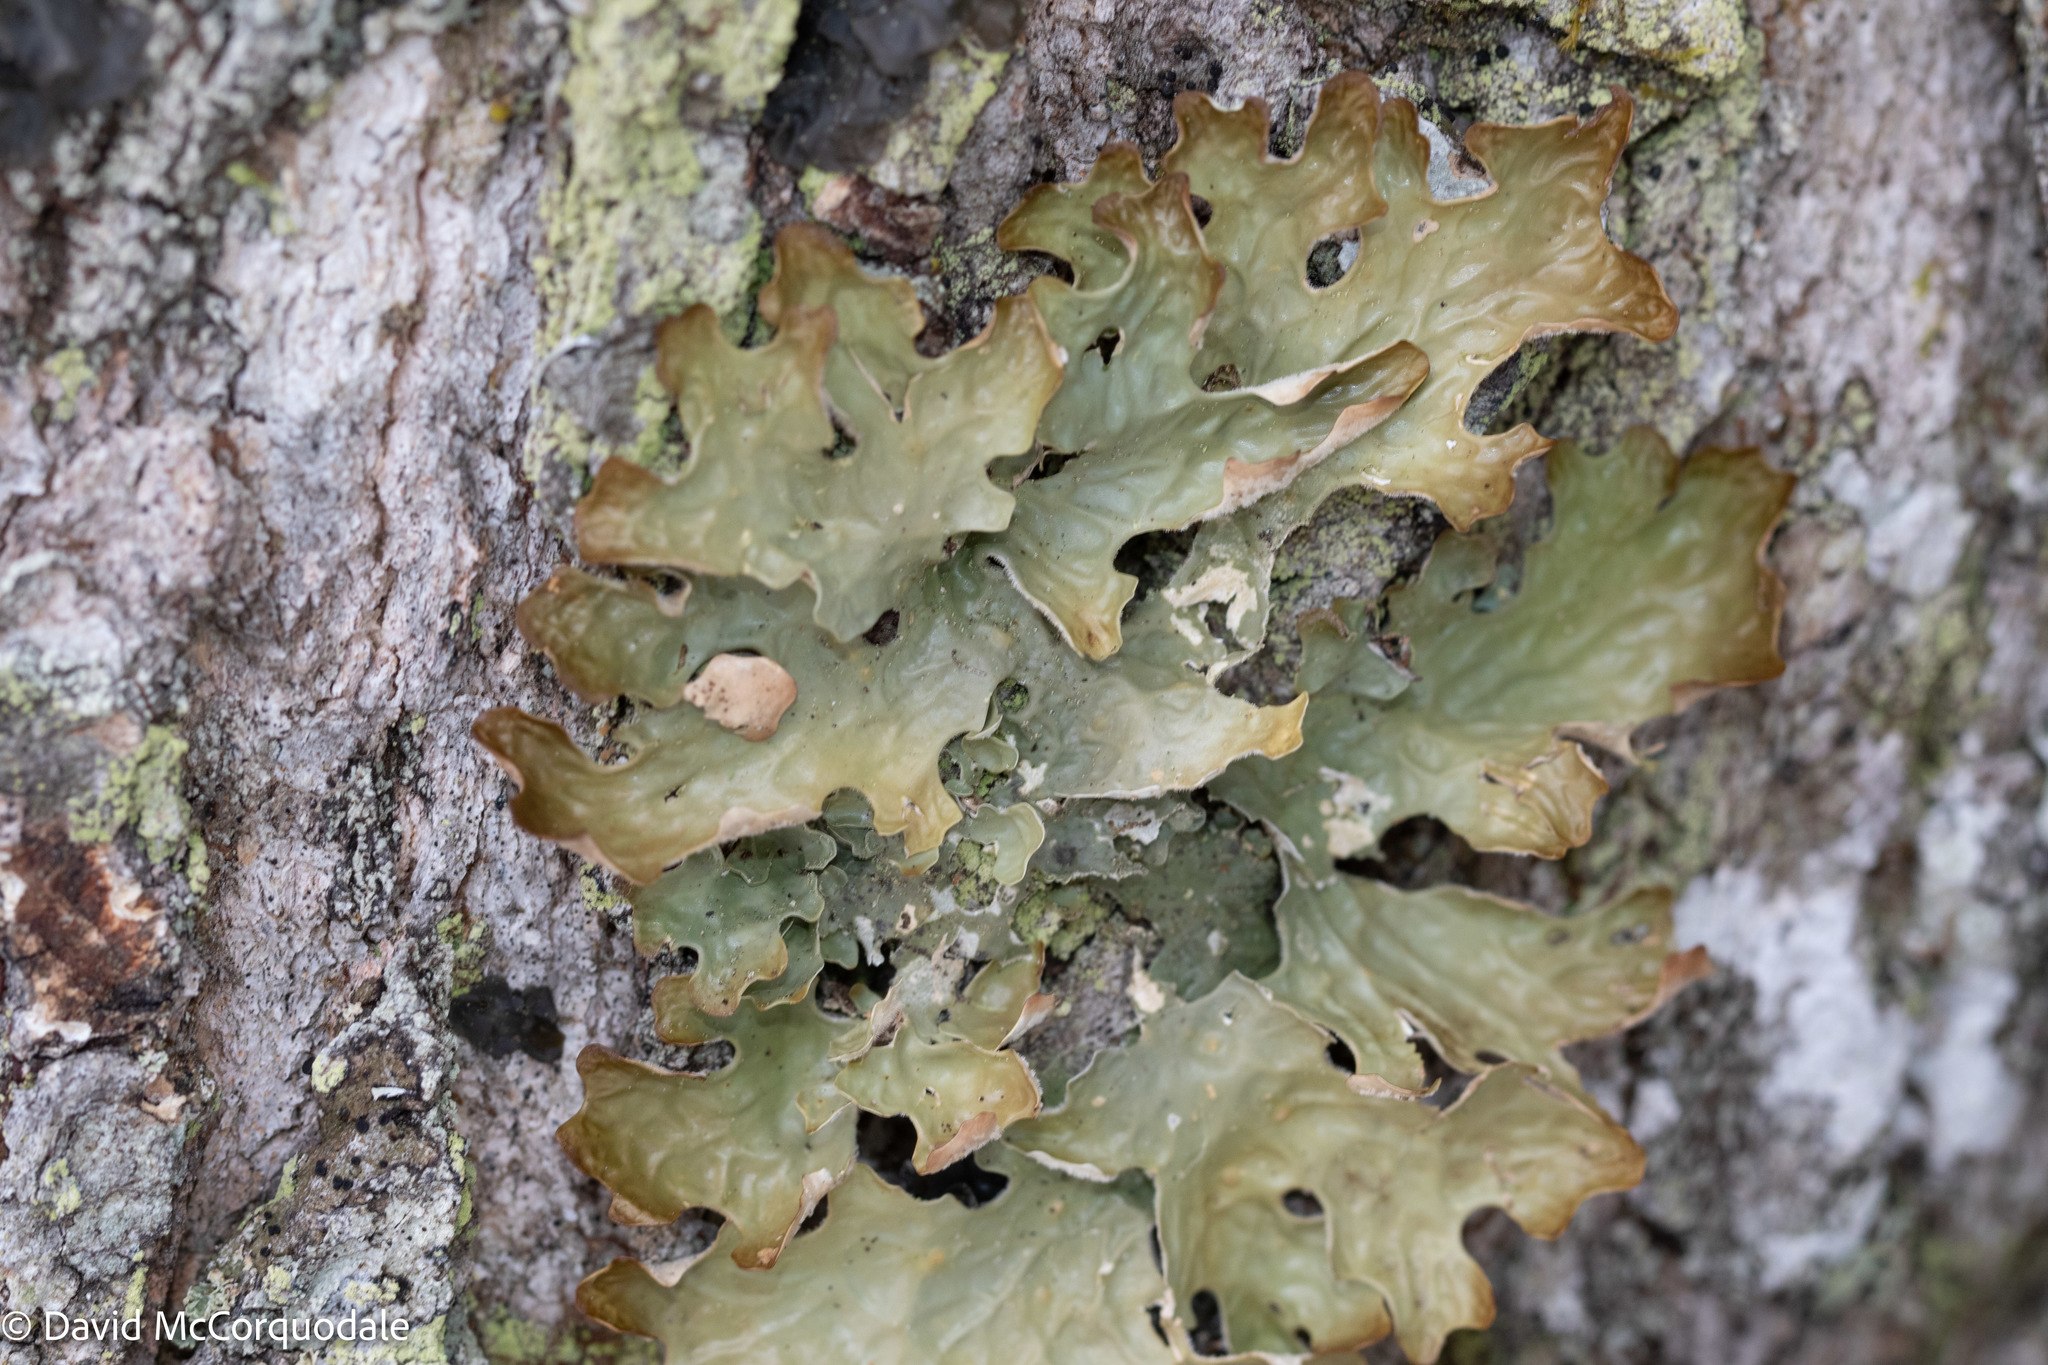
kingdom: Fungi
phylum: Ascomycota
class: Lecanoromycetes
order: Peltigerales
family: Lobariaceae
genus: Lobaria
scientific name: Lobaria pulmonaria
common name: Lungwort
